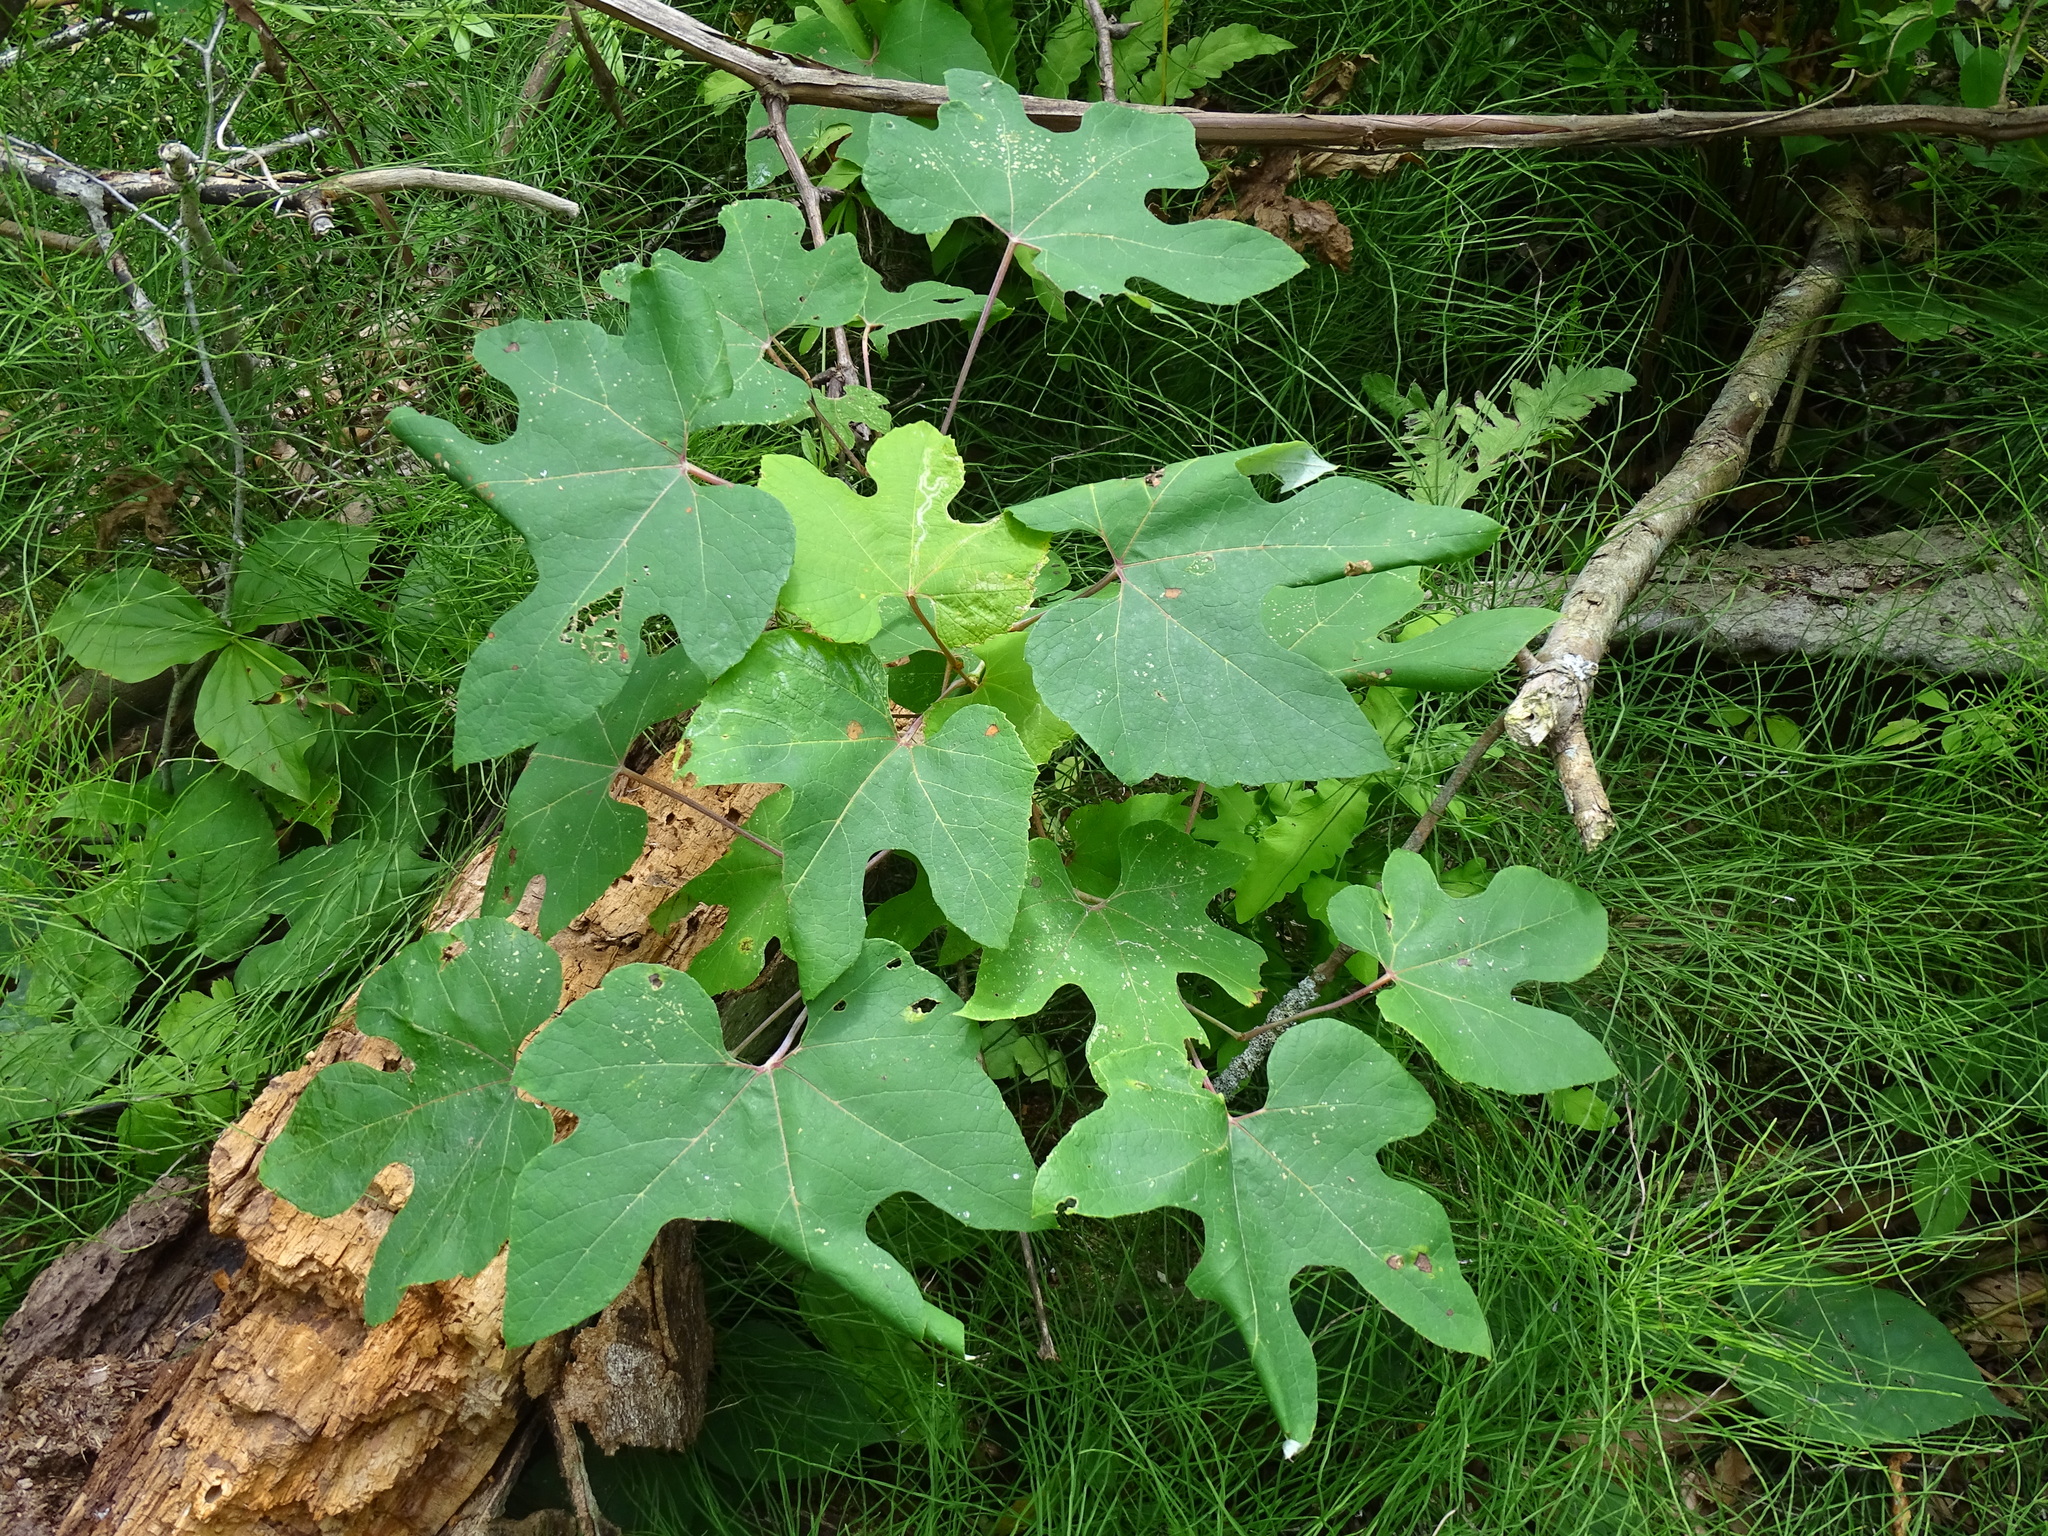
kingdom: Plantae
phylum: Tracheophyta
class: Magnoliopsida
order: Vitales
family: Vitaceae
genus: Vitis
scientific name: Vitis aestivalis
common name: Pigeon grape
